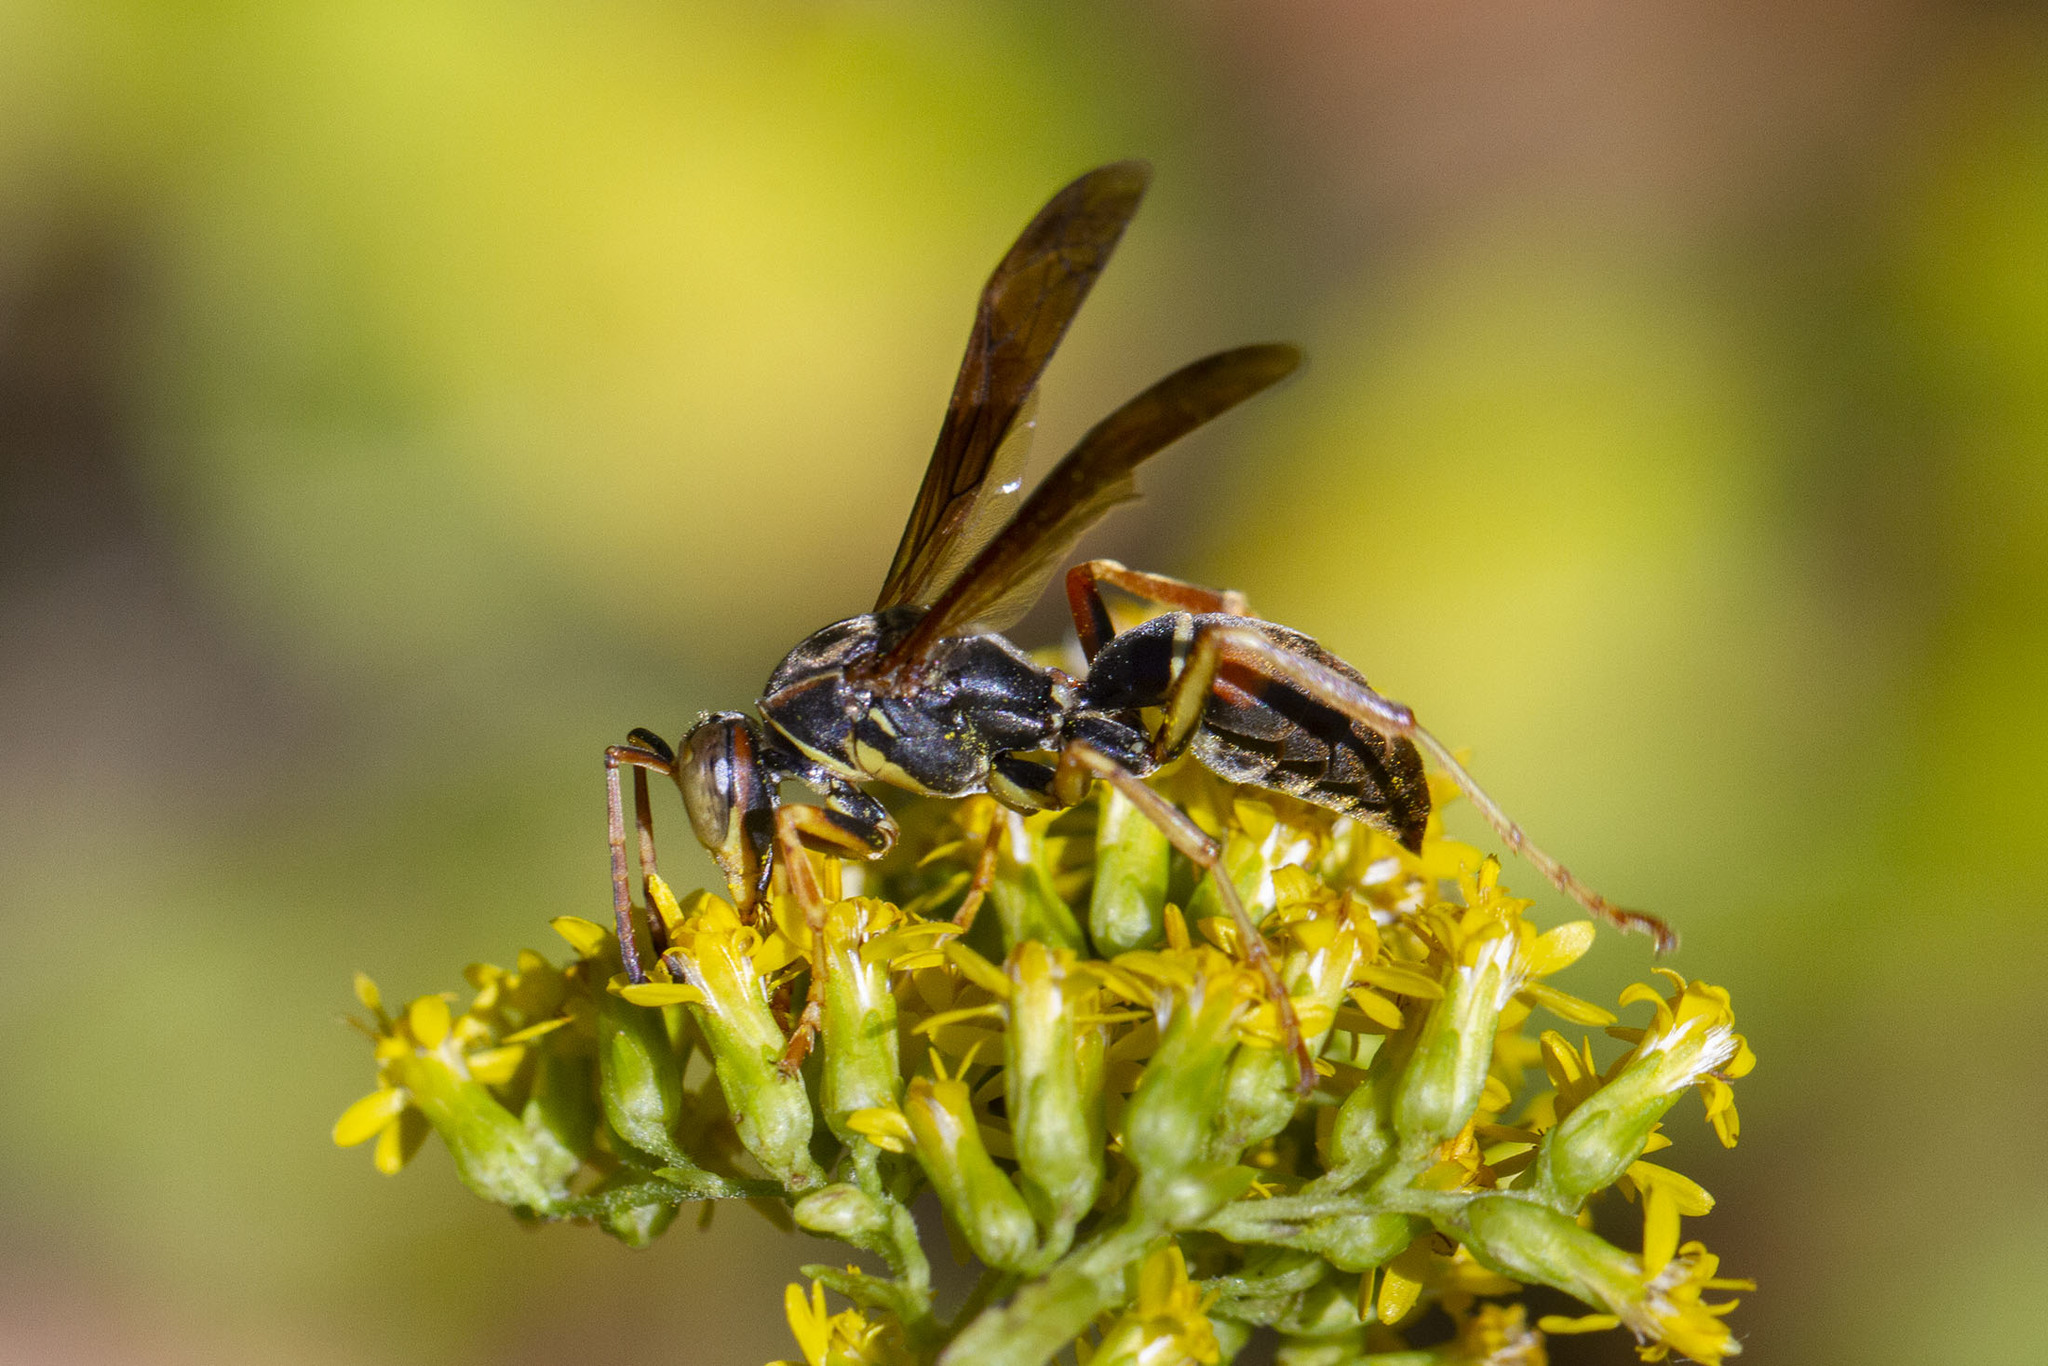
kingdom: Animalia
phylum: Arthropoda
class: Insecta
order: Hymenoptera
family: Eumenidae
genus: Polistes
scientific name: Polistes fuscatus
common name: Dark paper wasp
